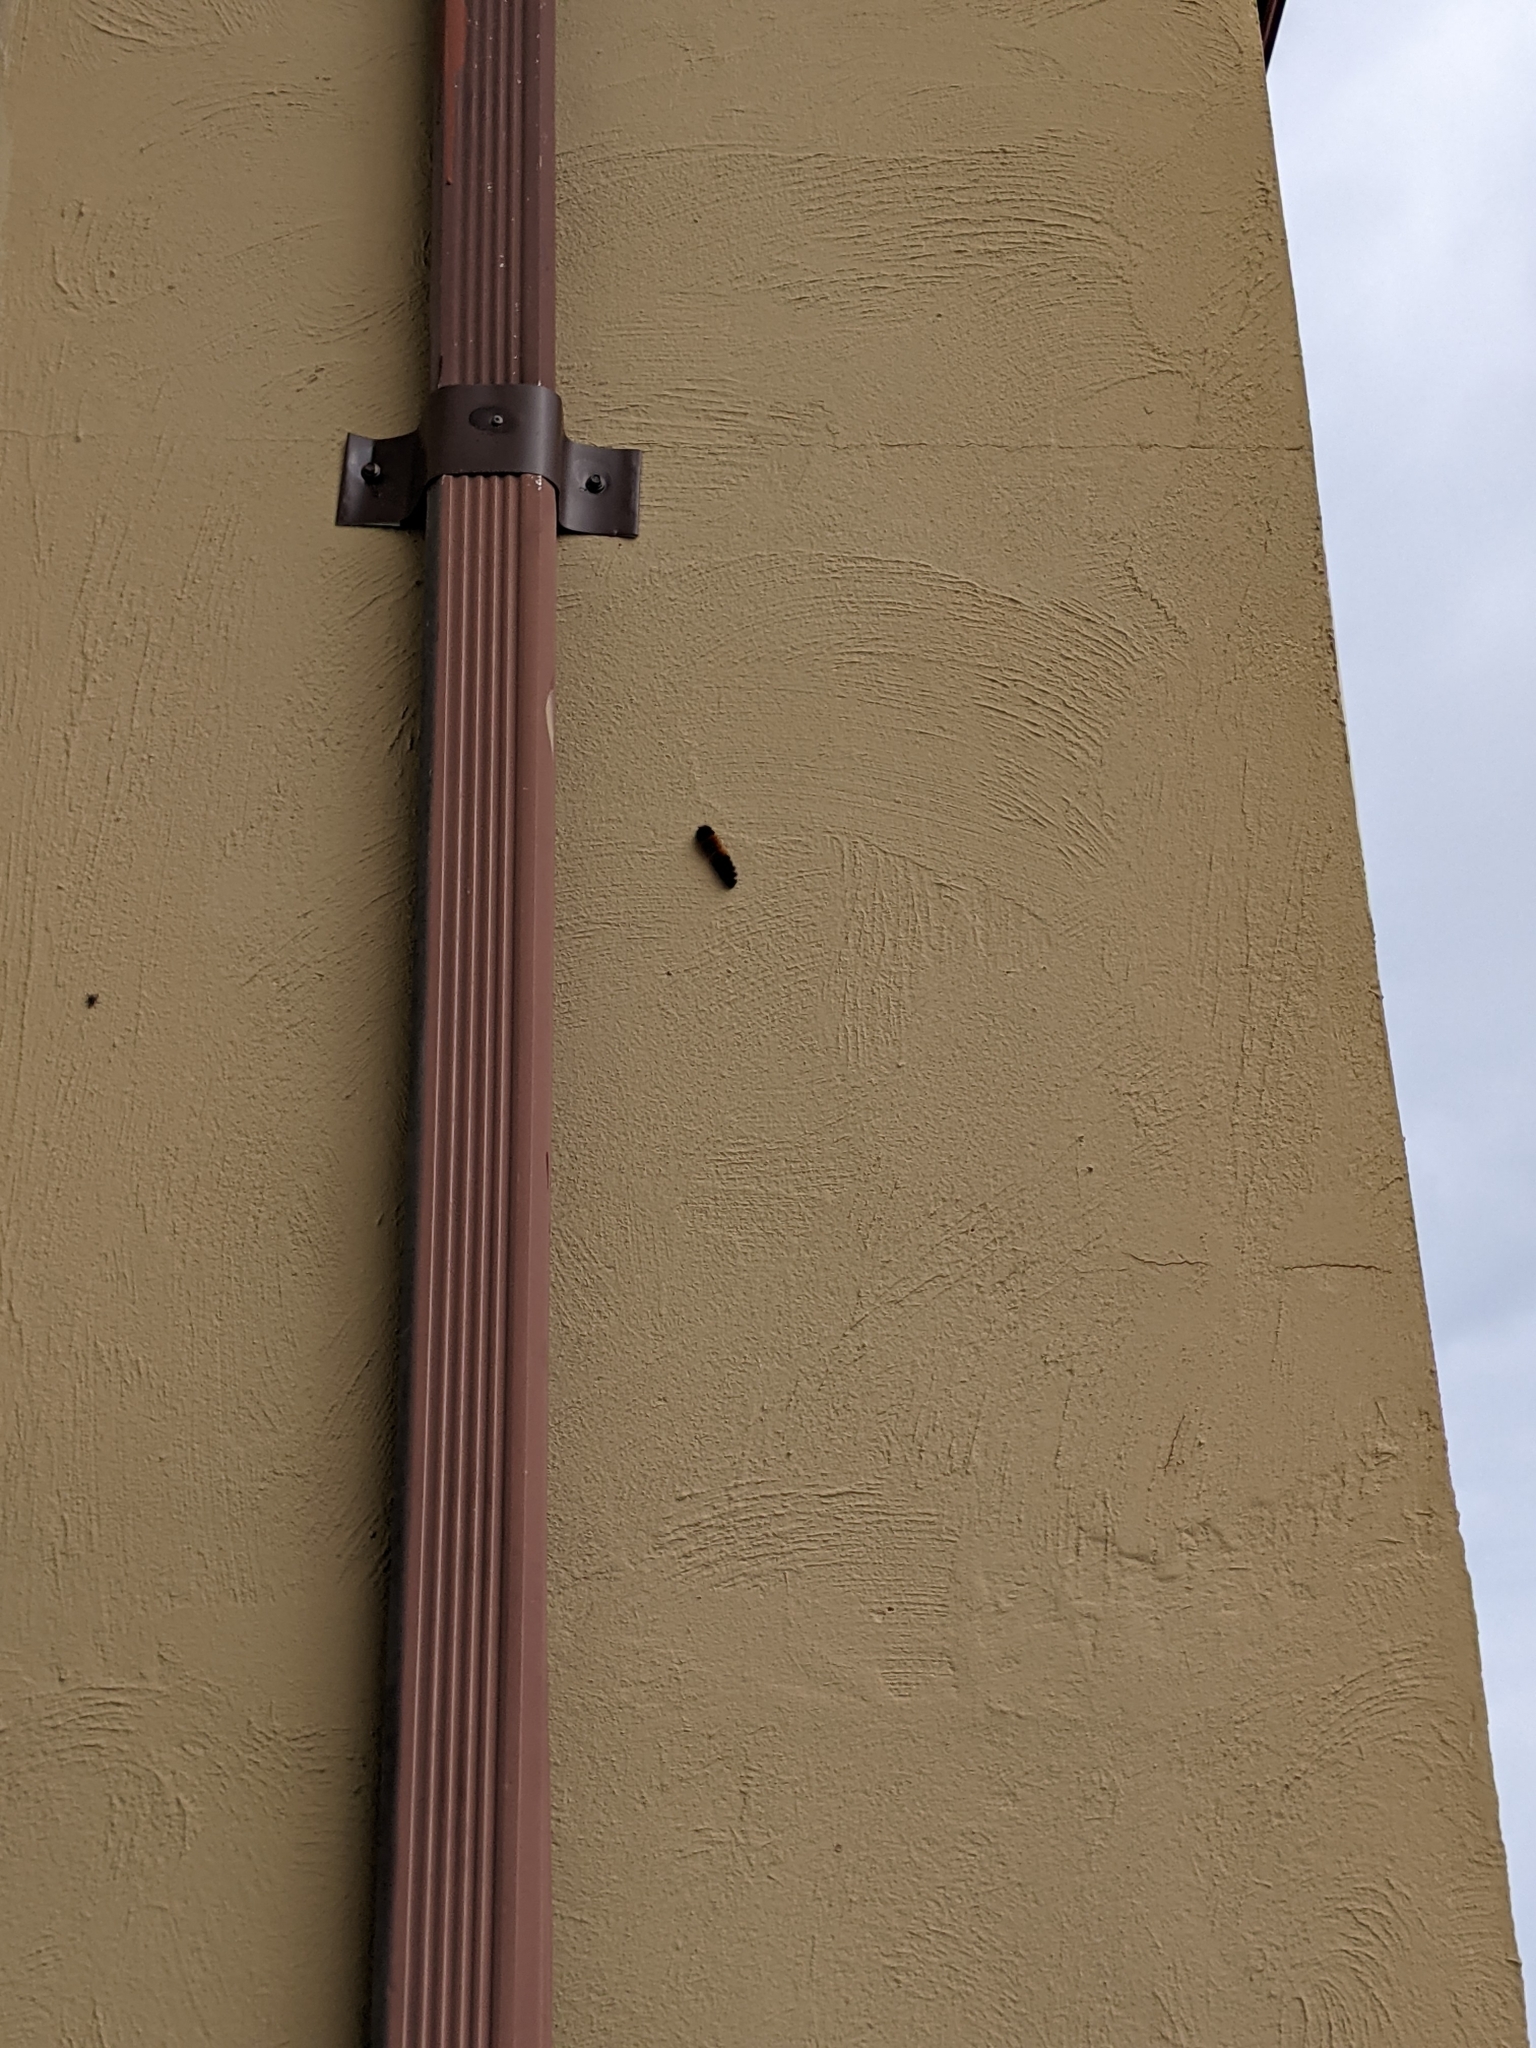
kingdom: Animalia
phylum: Arthropoda
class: Insecta
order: Lepidoptera
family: Erebidae
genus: Pyrrharctia
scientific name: Pyrrharctia isabella
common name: Isabella tiger moth
